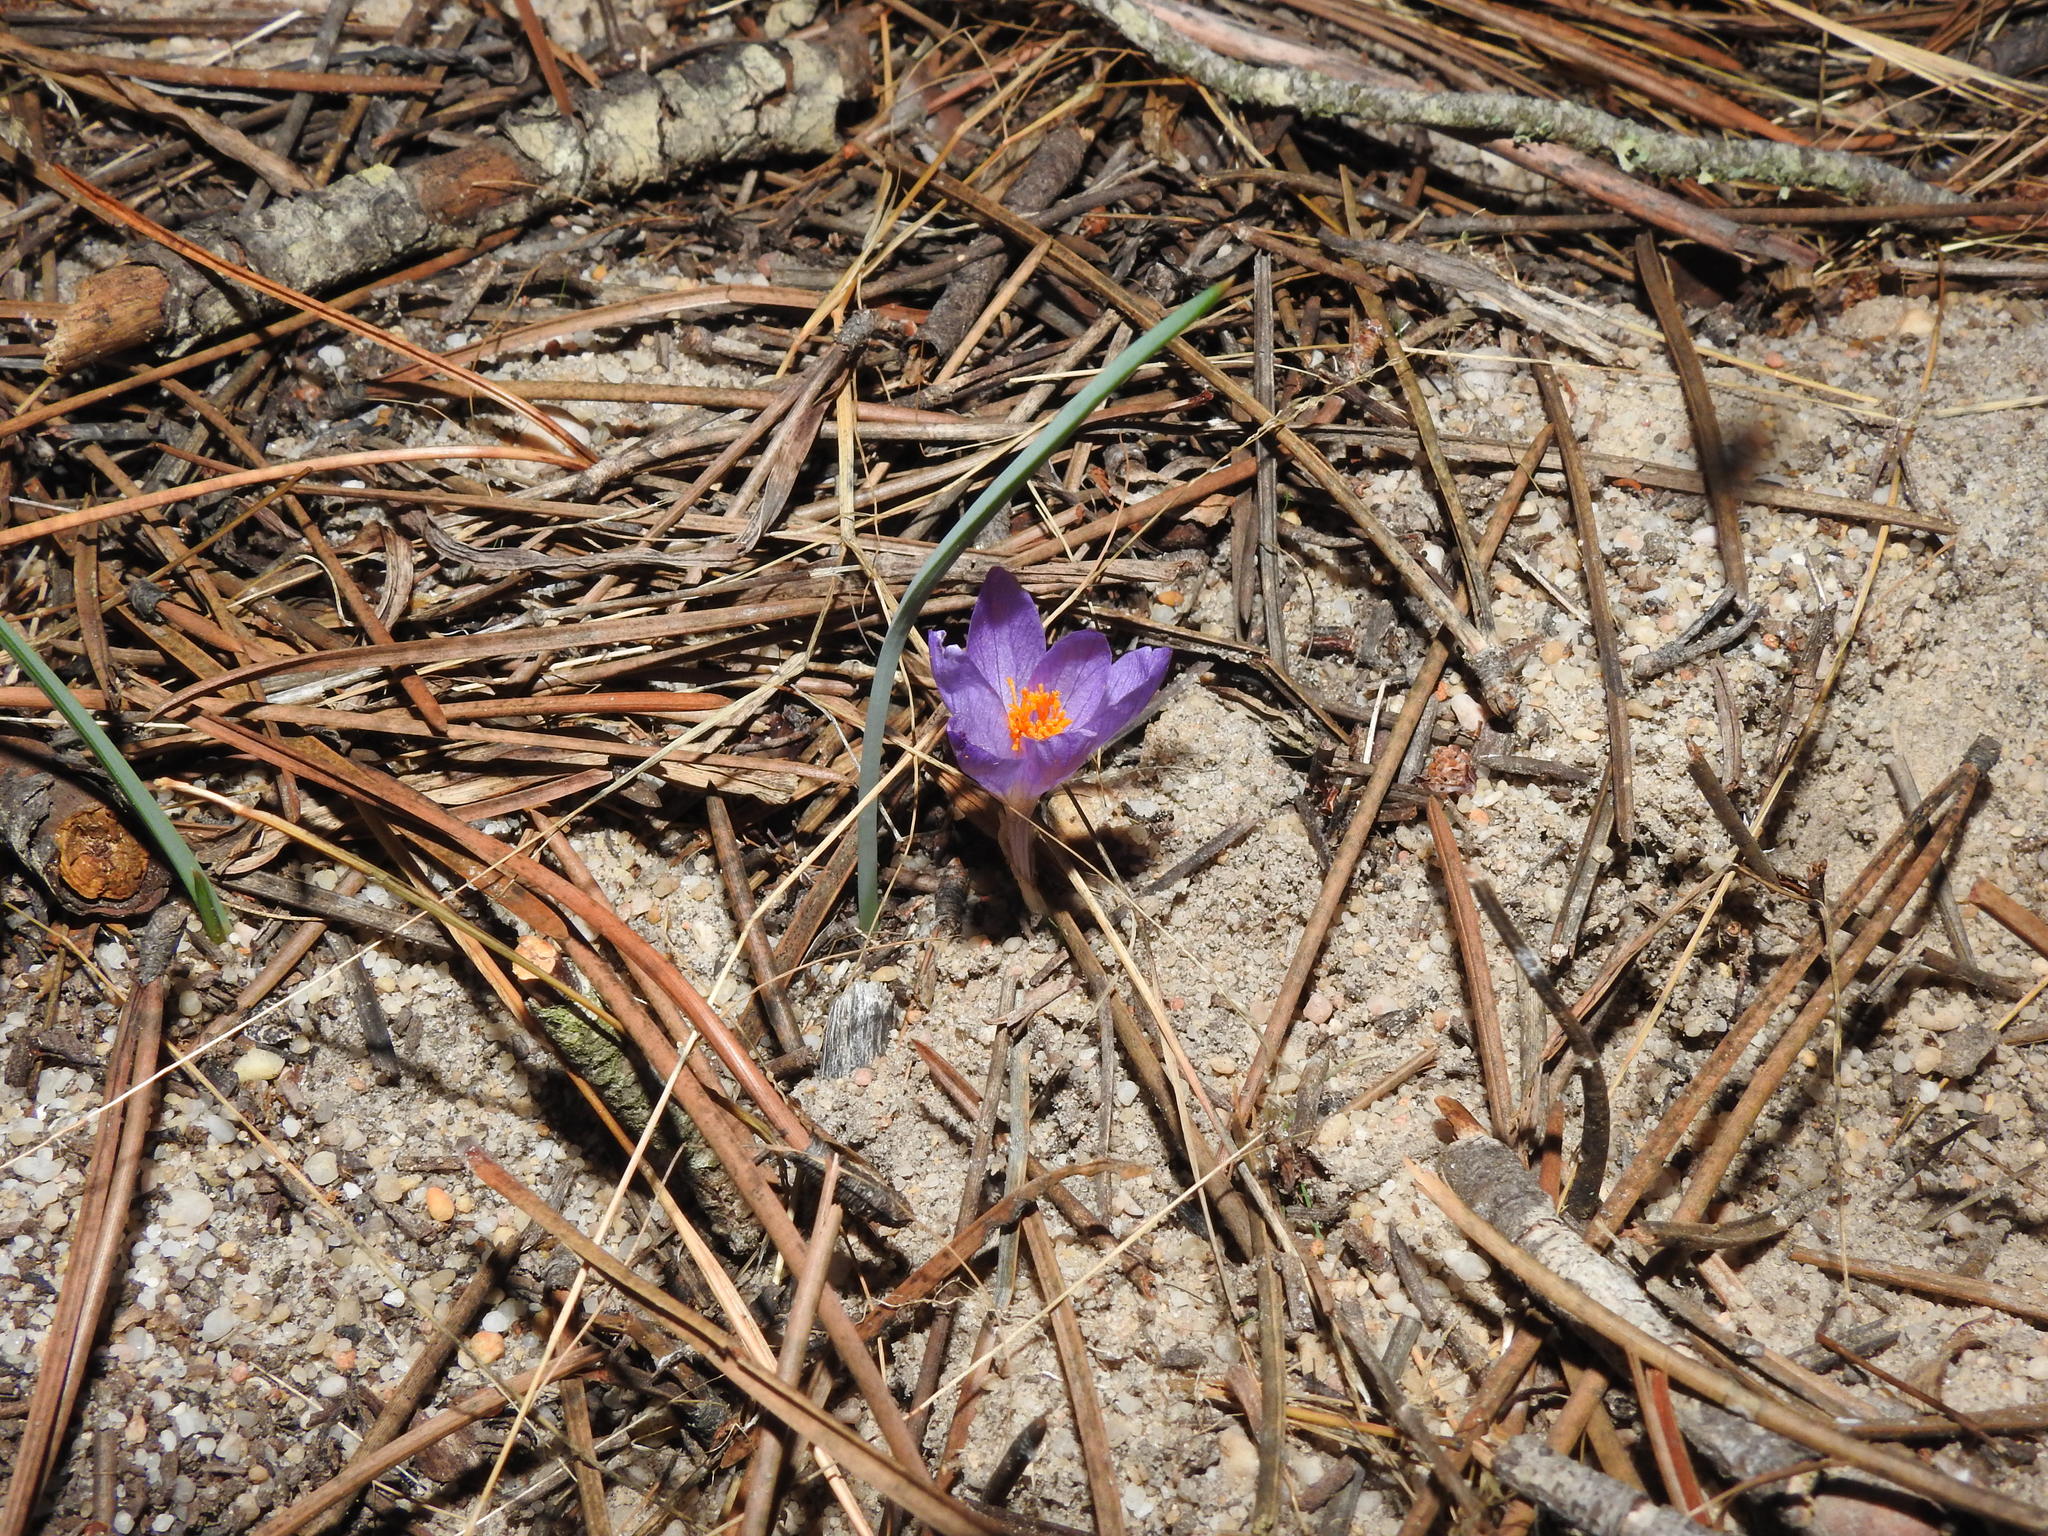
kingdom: Plantae
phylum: Tracheophyta
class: Liliopsida
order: Asparagales
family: Iridaceae
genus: Crocus
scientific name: Crocus serotinus
